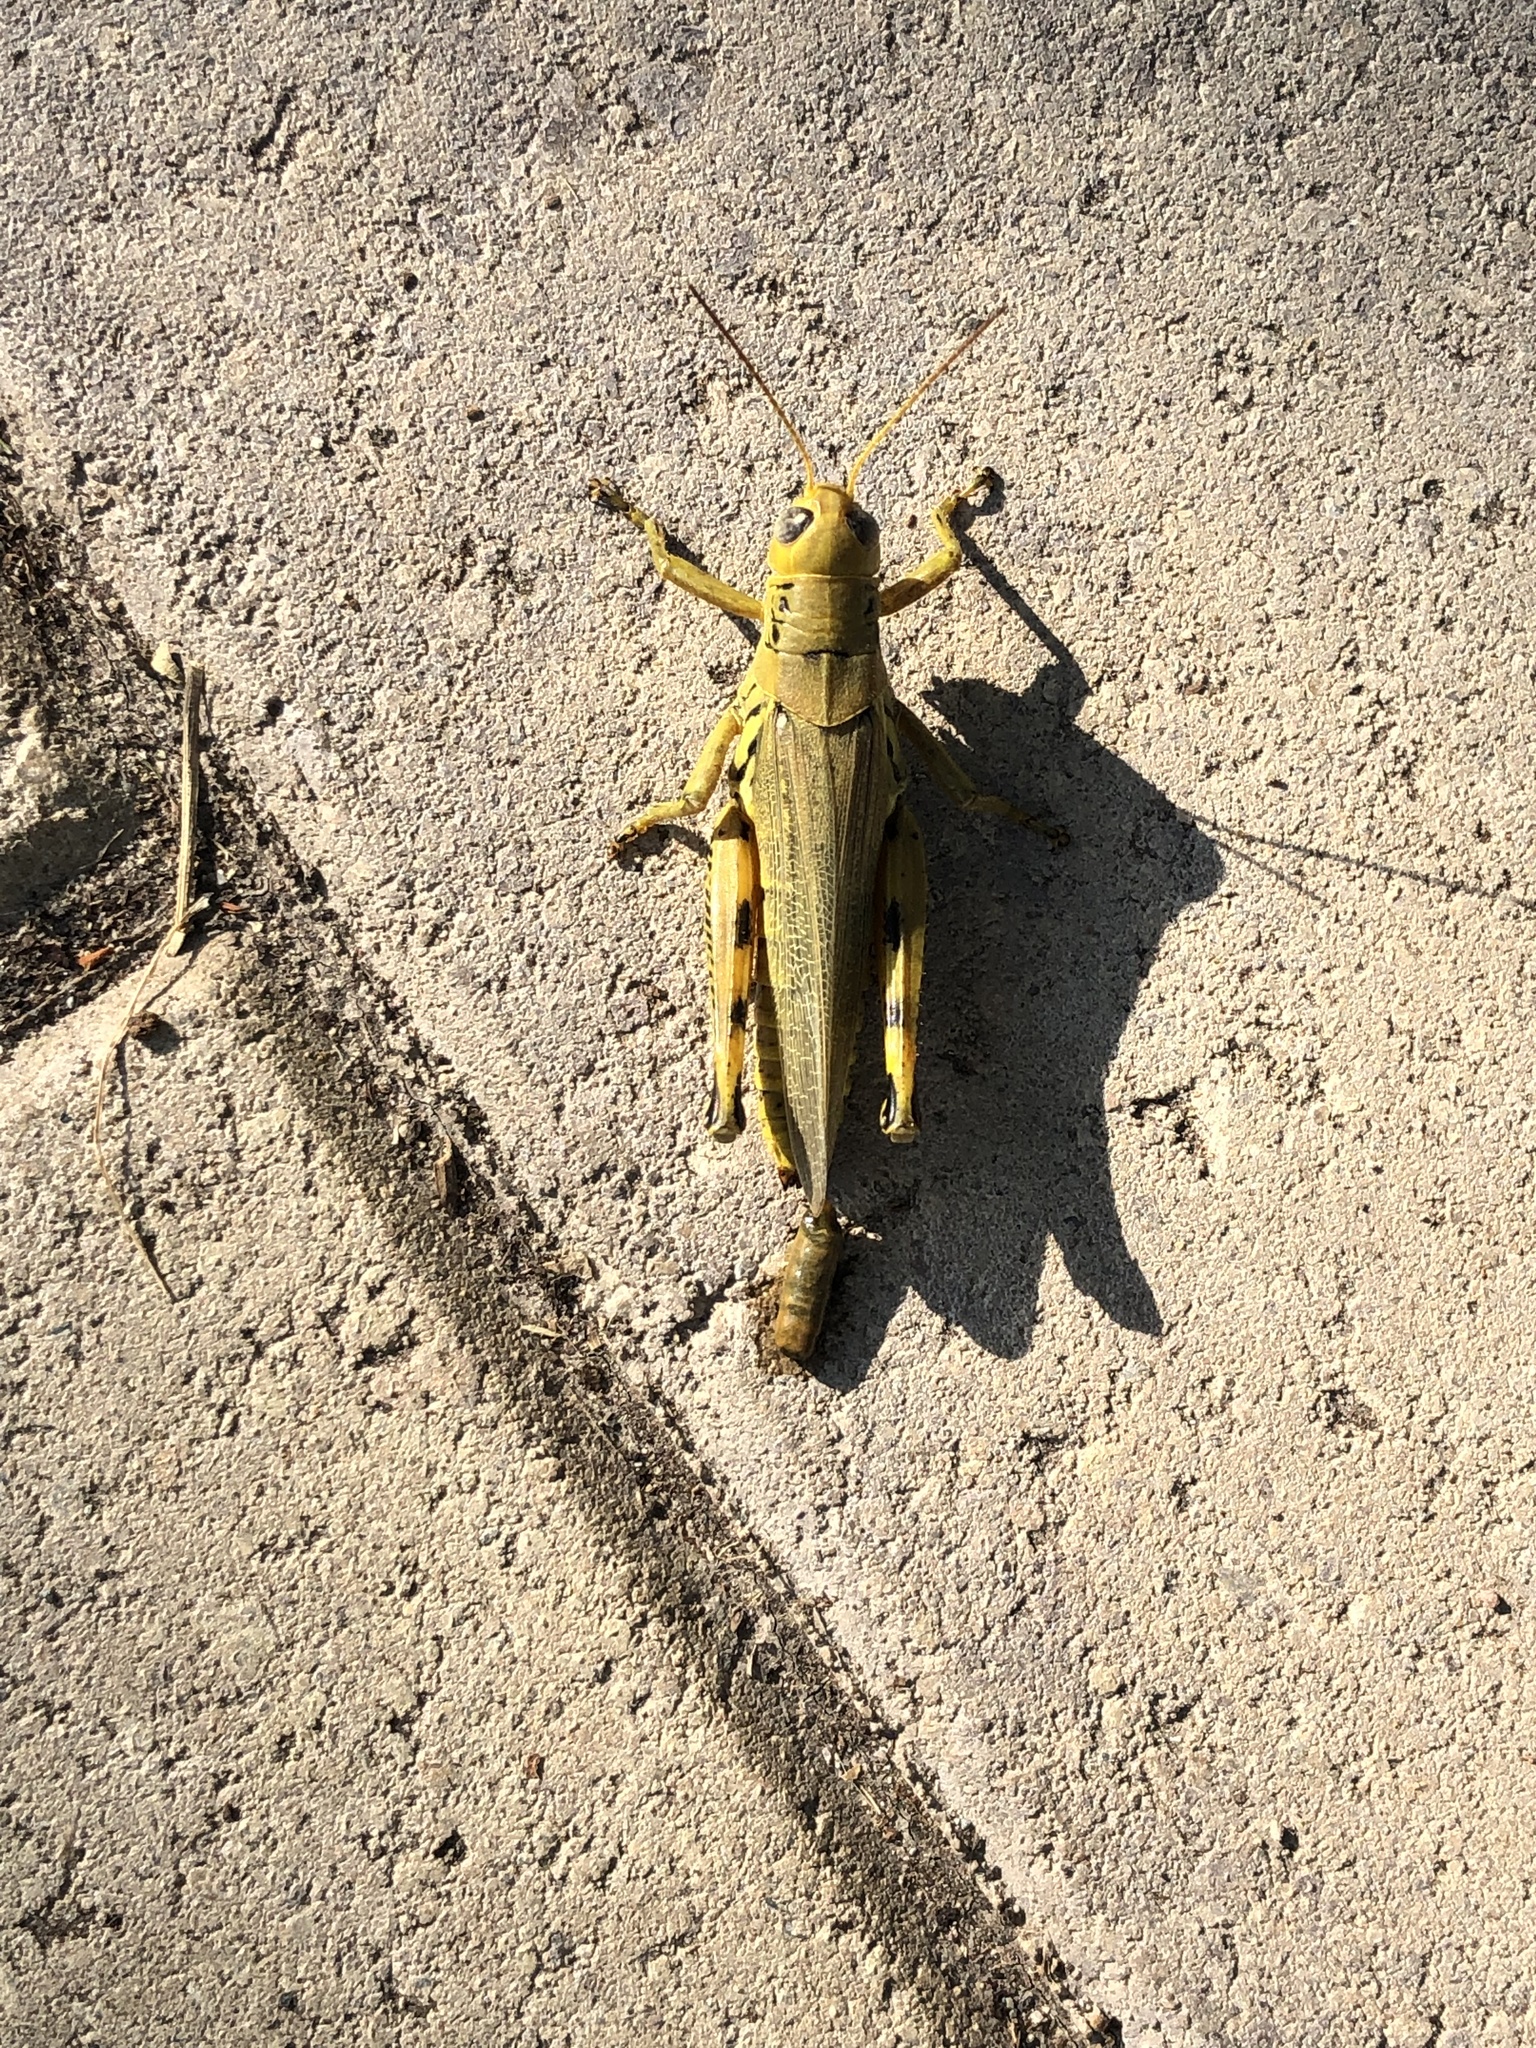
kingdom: Animalia
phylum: Arthropoda
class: Insecta
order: Orthoptera
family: Acrididae
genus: Melanoplus
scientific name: Melanoplus differentialis
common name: Differential grasshopper
